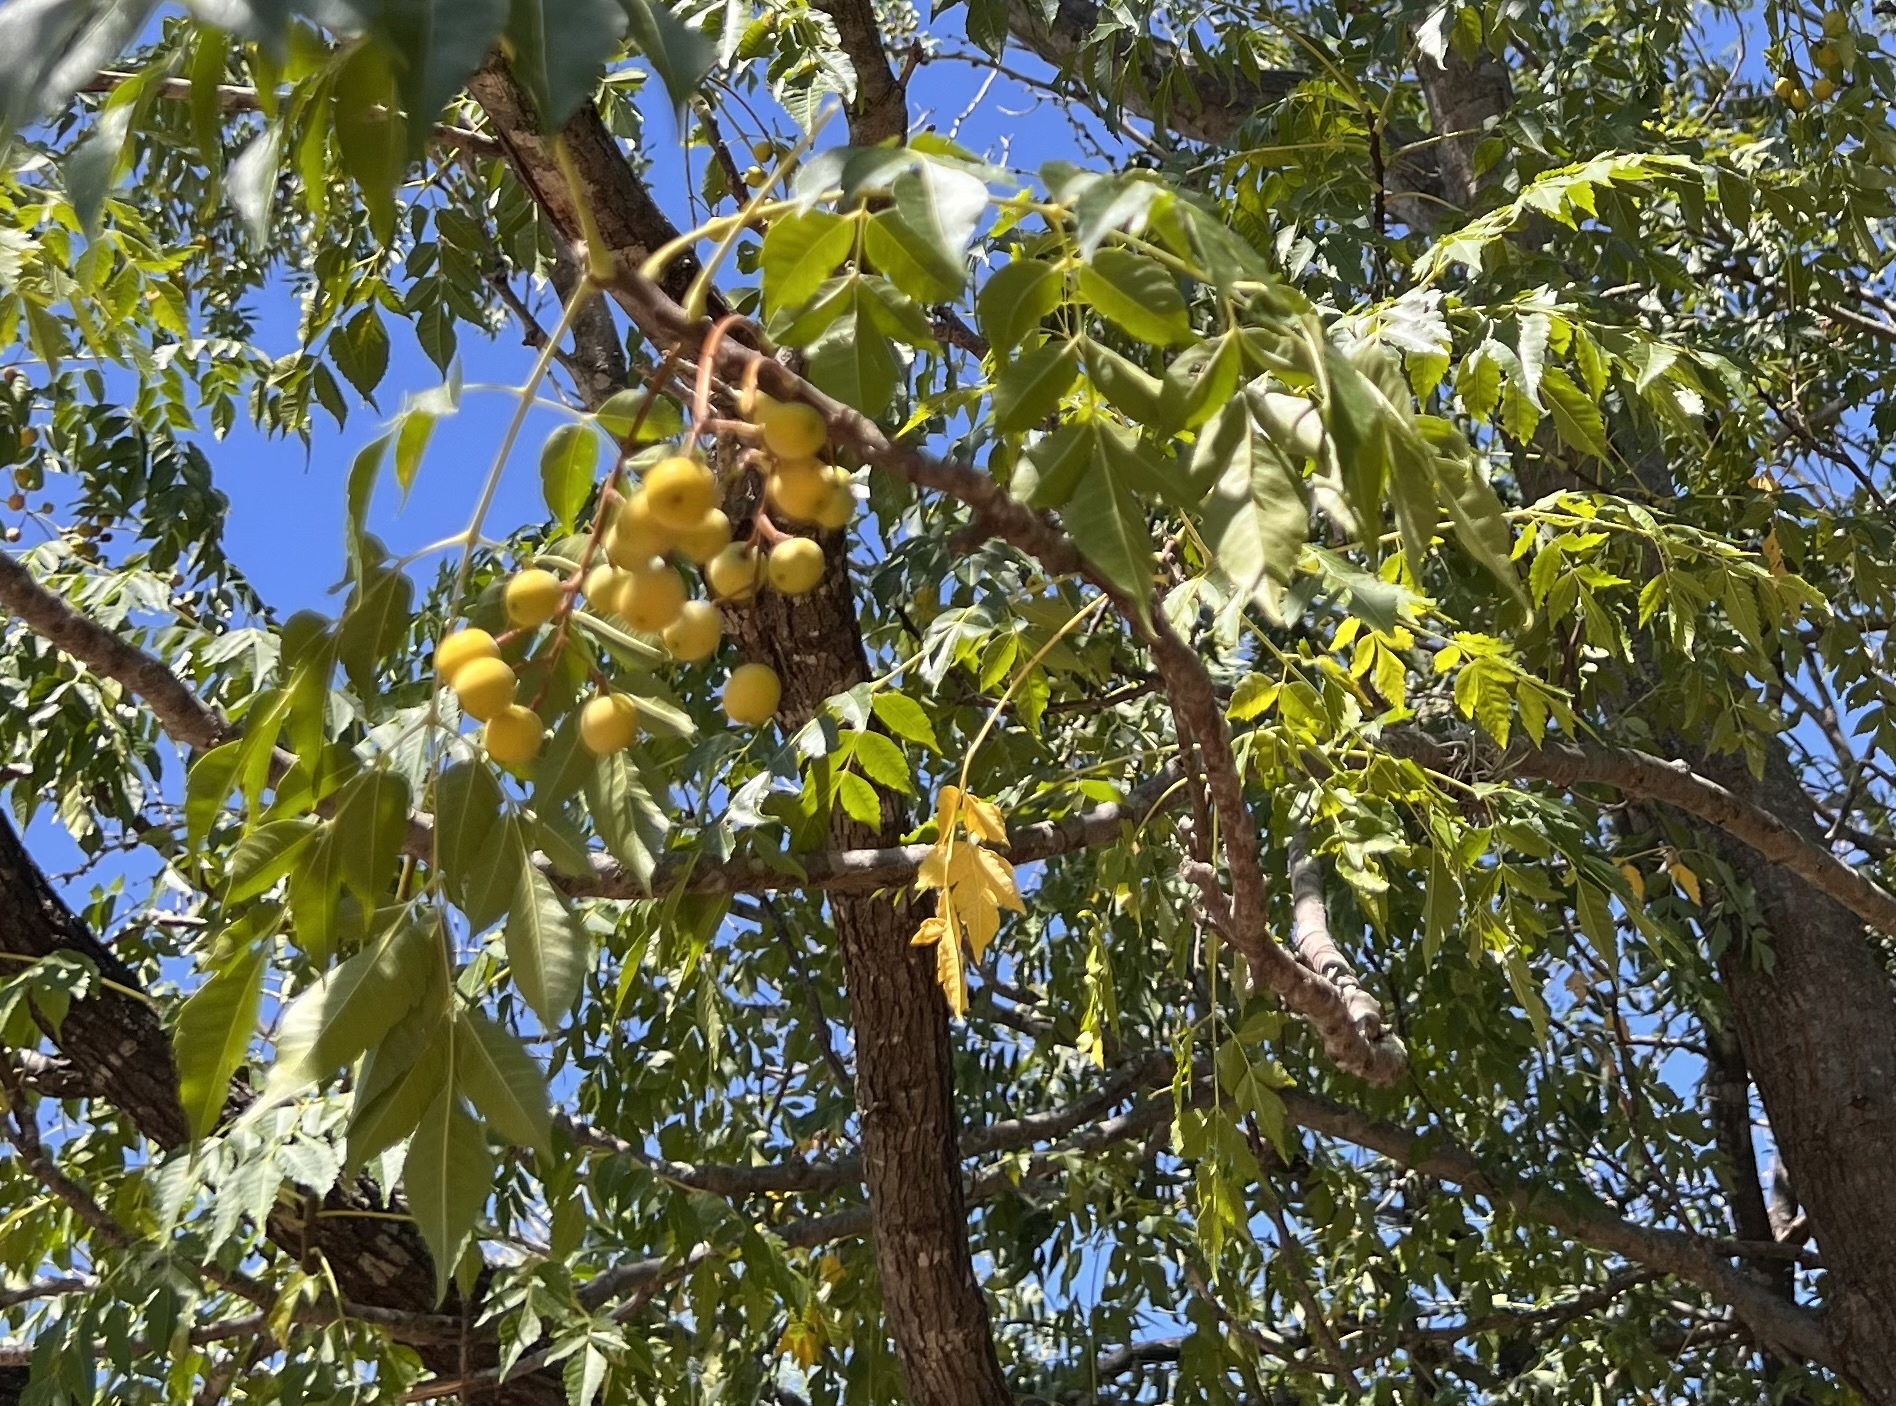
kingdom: Plantae
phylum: Tracheophyta
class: Magnoliopsida
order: Sapindales
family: Meliaceae
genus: Melia
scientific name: Melia azedarach
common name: Chinaberrytree
